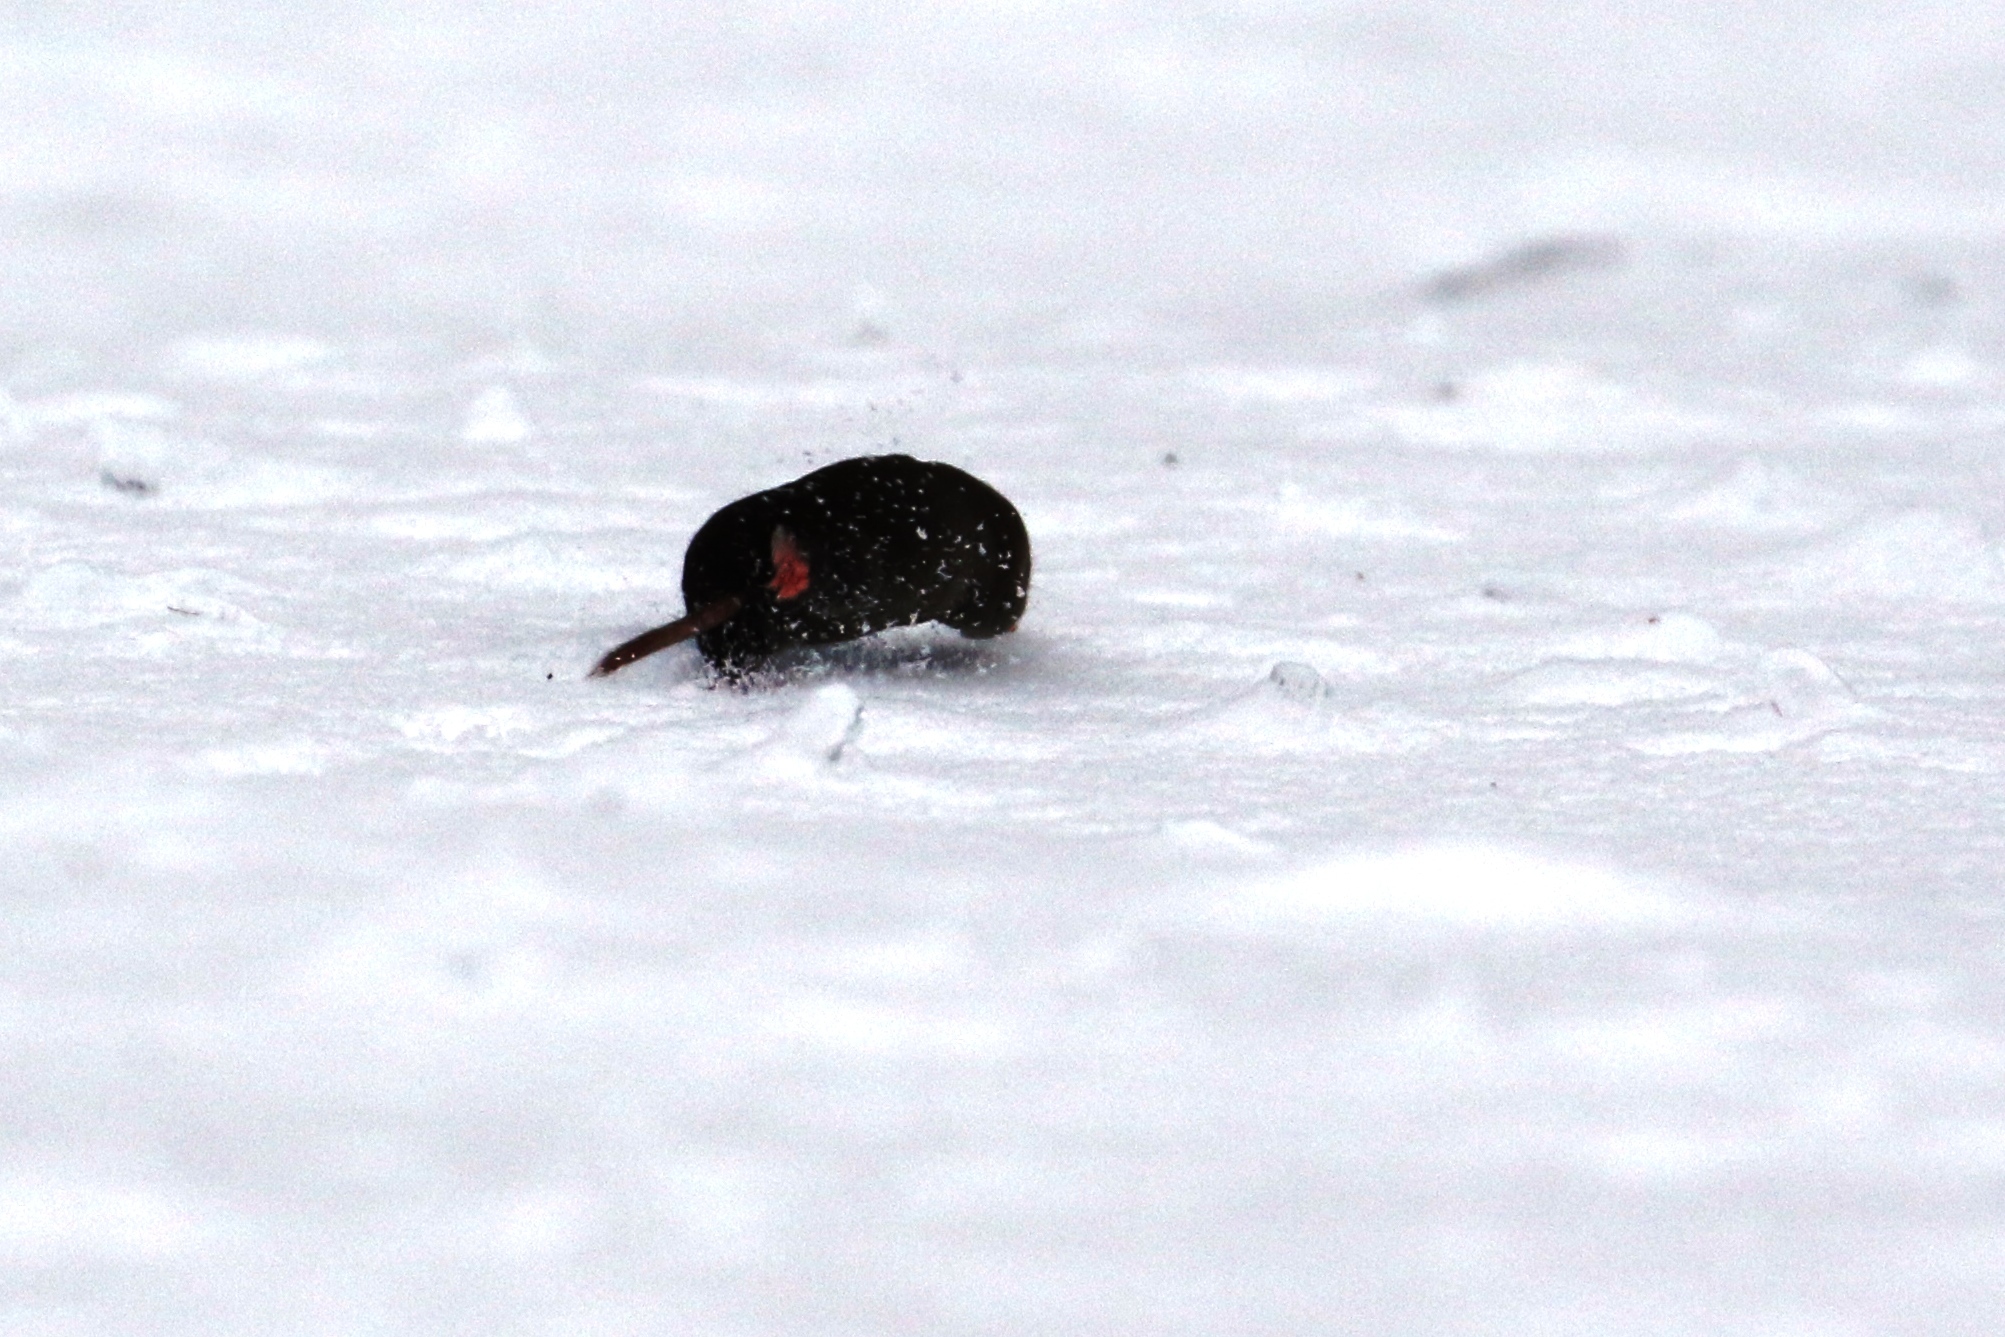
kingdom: Animalia
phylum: Chordata
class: Mammalia
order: Soricomorpha
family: Soricidae
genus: Blarina
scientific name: Blarina brevicauda
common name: Northern short-tailed shrew
